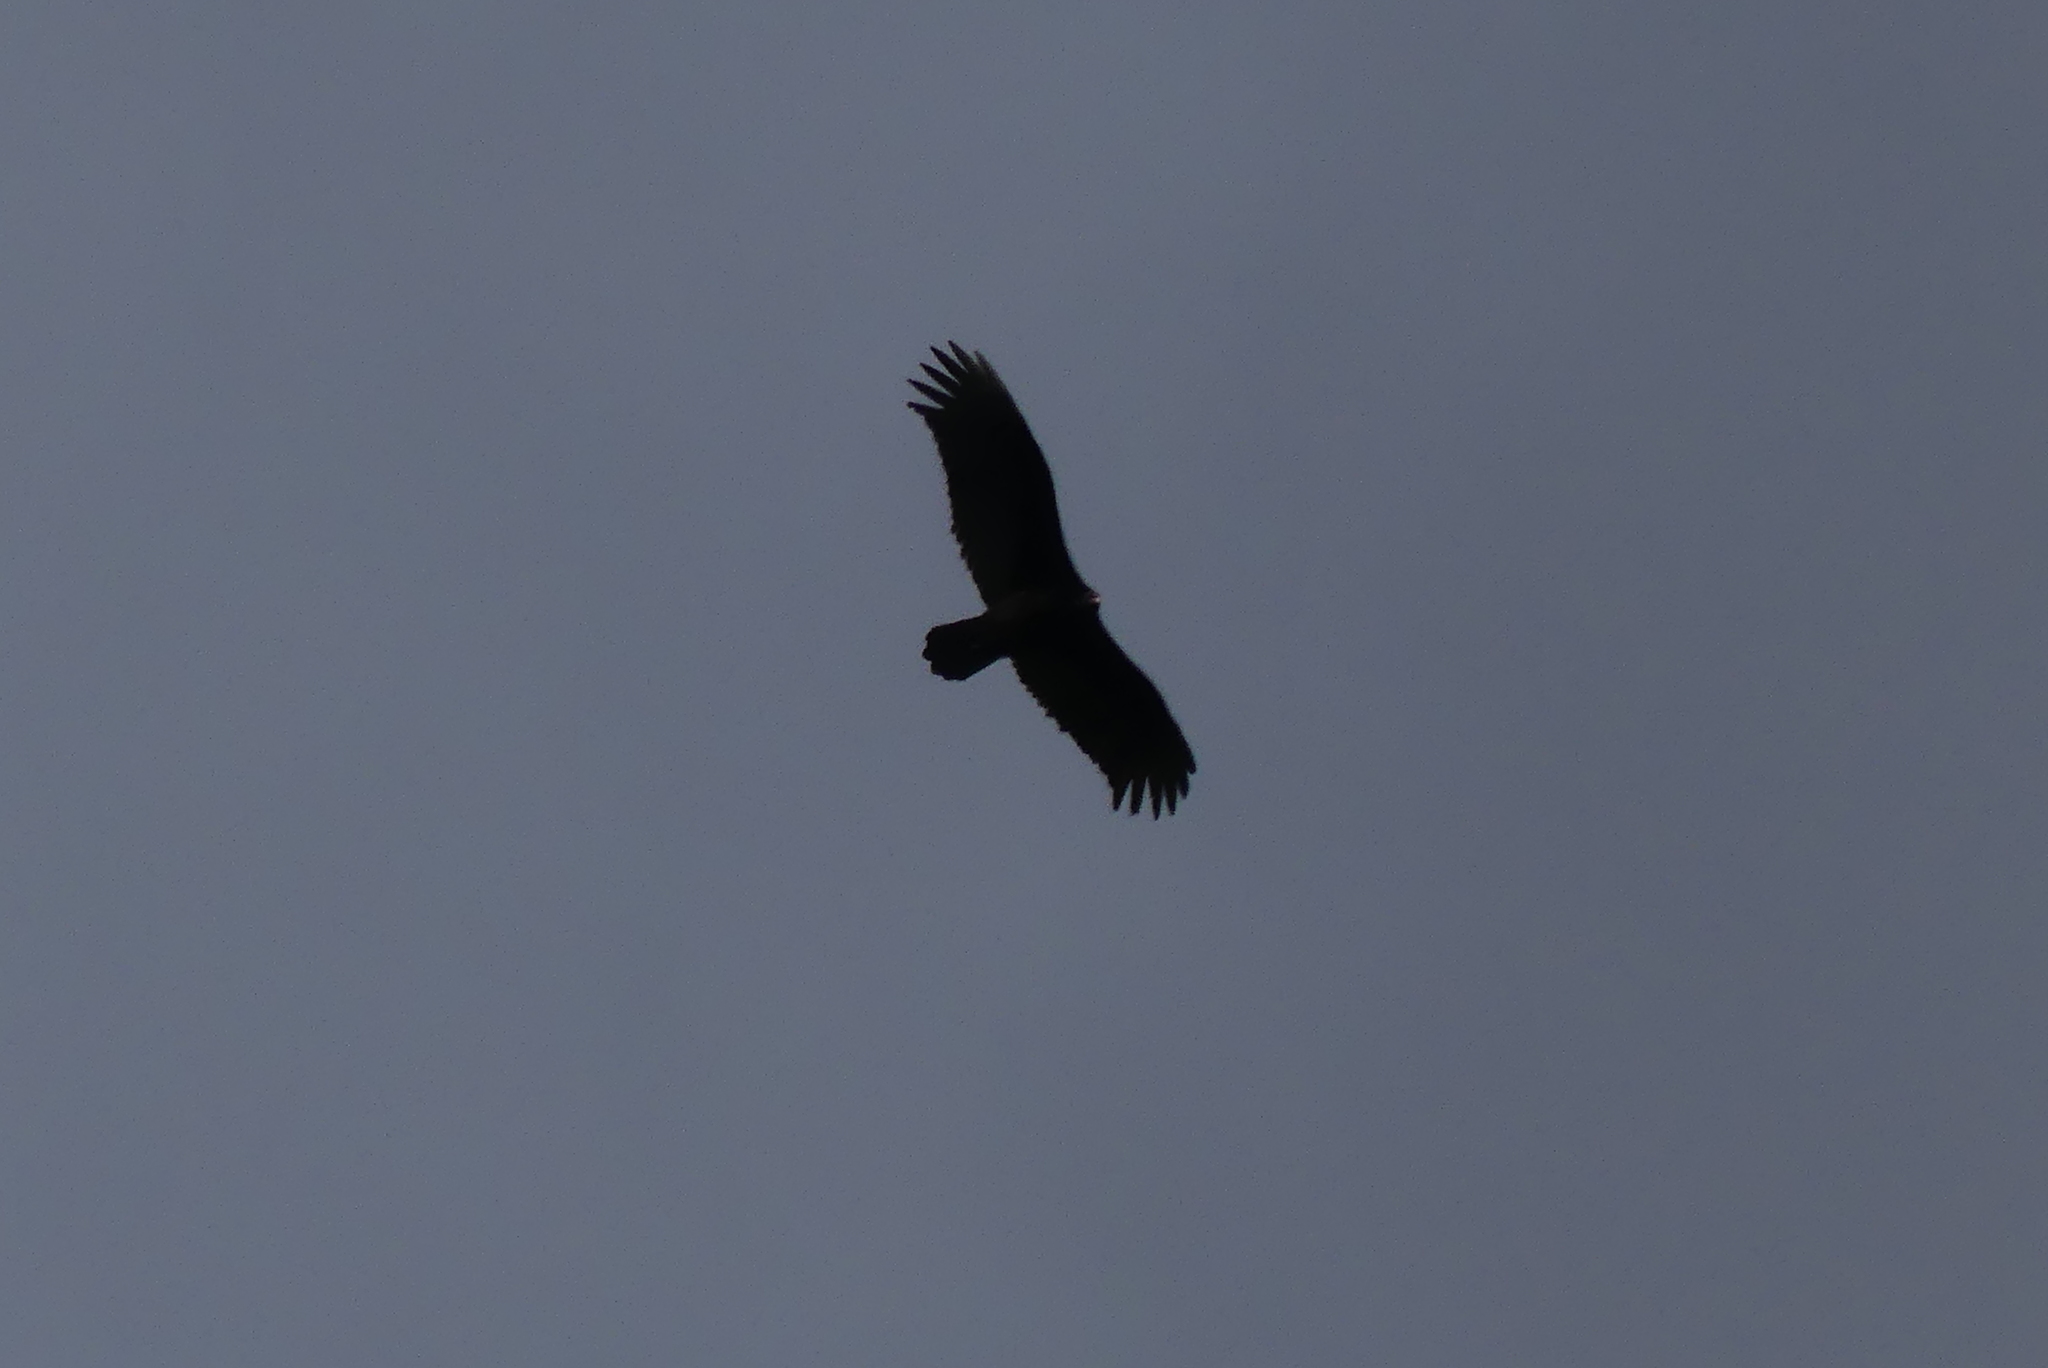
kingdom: Animalia
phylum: Chordata
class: Aves
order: Accipitriformes
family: Cathartidae
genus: Cathartes
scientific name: Cathartes aura
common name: Turkey vulture
